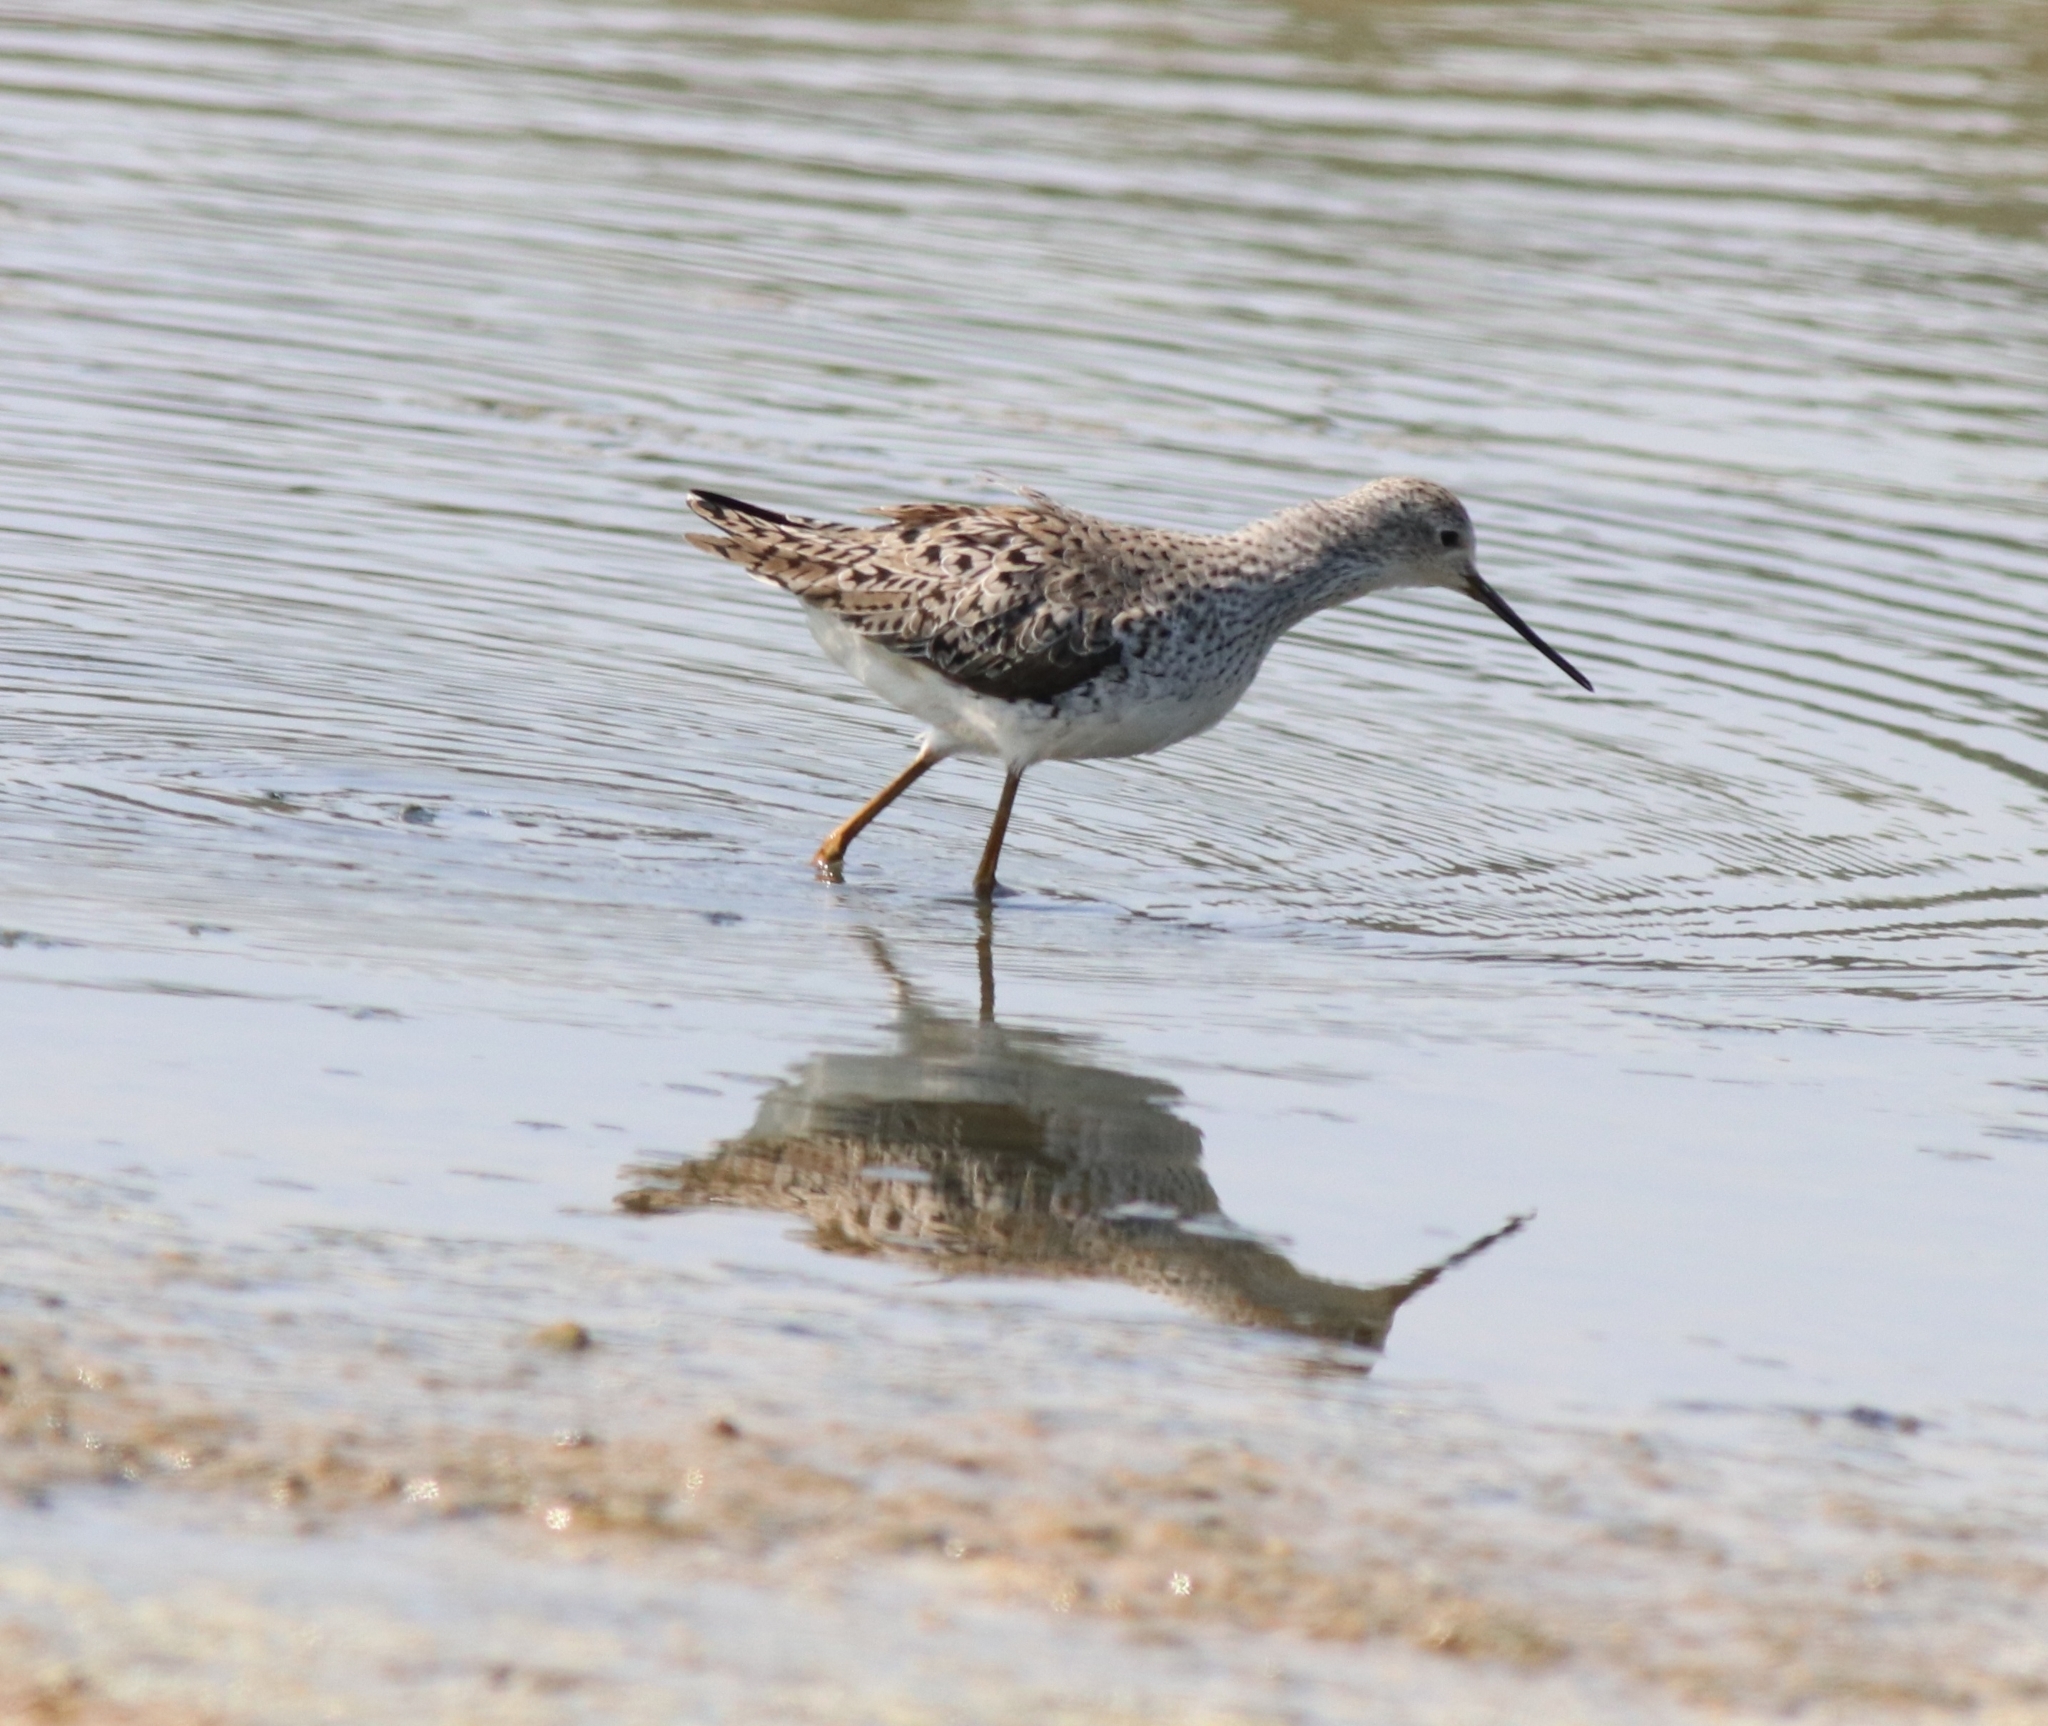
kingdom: Animalia
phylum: Chordata
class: Aves
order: Charadriiformes
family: Scolopacidae
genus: Tringa
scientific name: Tringa stagnatilis
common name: Marsh sandpiper
